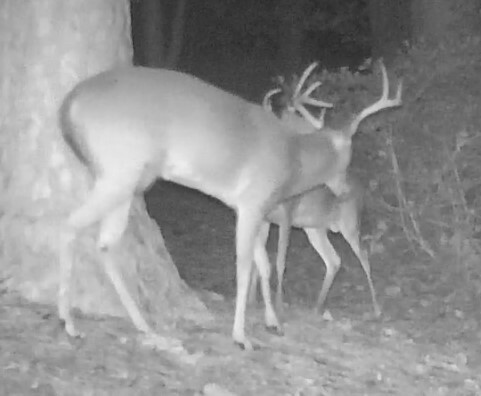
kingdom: Animalia
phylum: Chordata
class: Mammalia
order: Artiodactyla
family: Cervidae
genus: Odocoileus
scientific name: Odocoileus virginianus
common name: White-tailed deer
